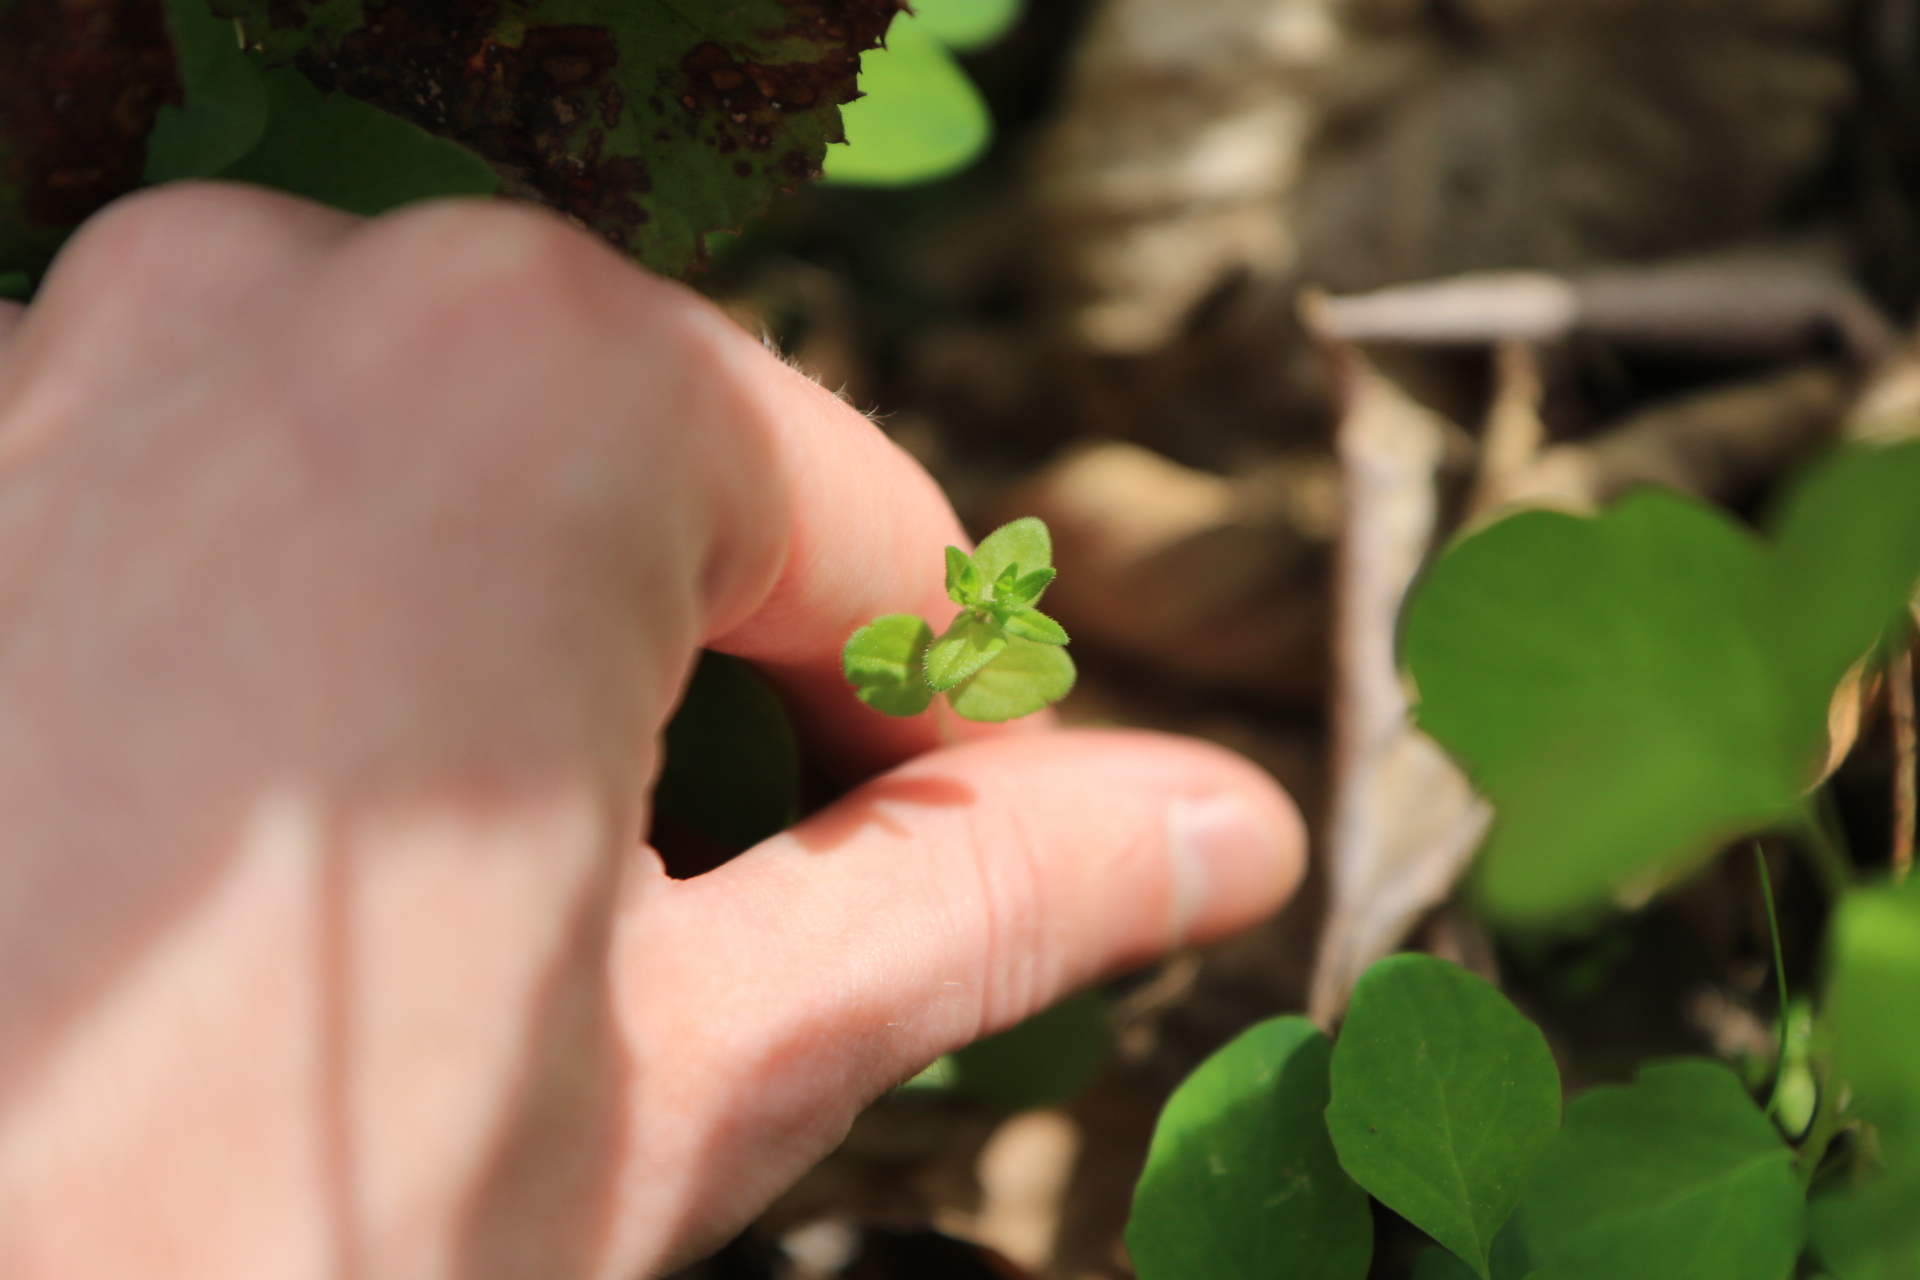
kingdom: Plantae
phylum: Tracheophyta
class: Magnoliopsida
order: Lamiales
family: Plantaginaceae
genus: Veronica
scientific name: Veronica arvensis
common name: Corn speedwell
